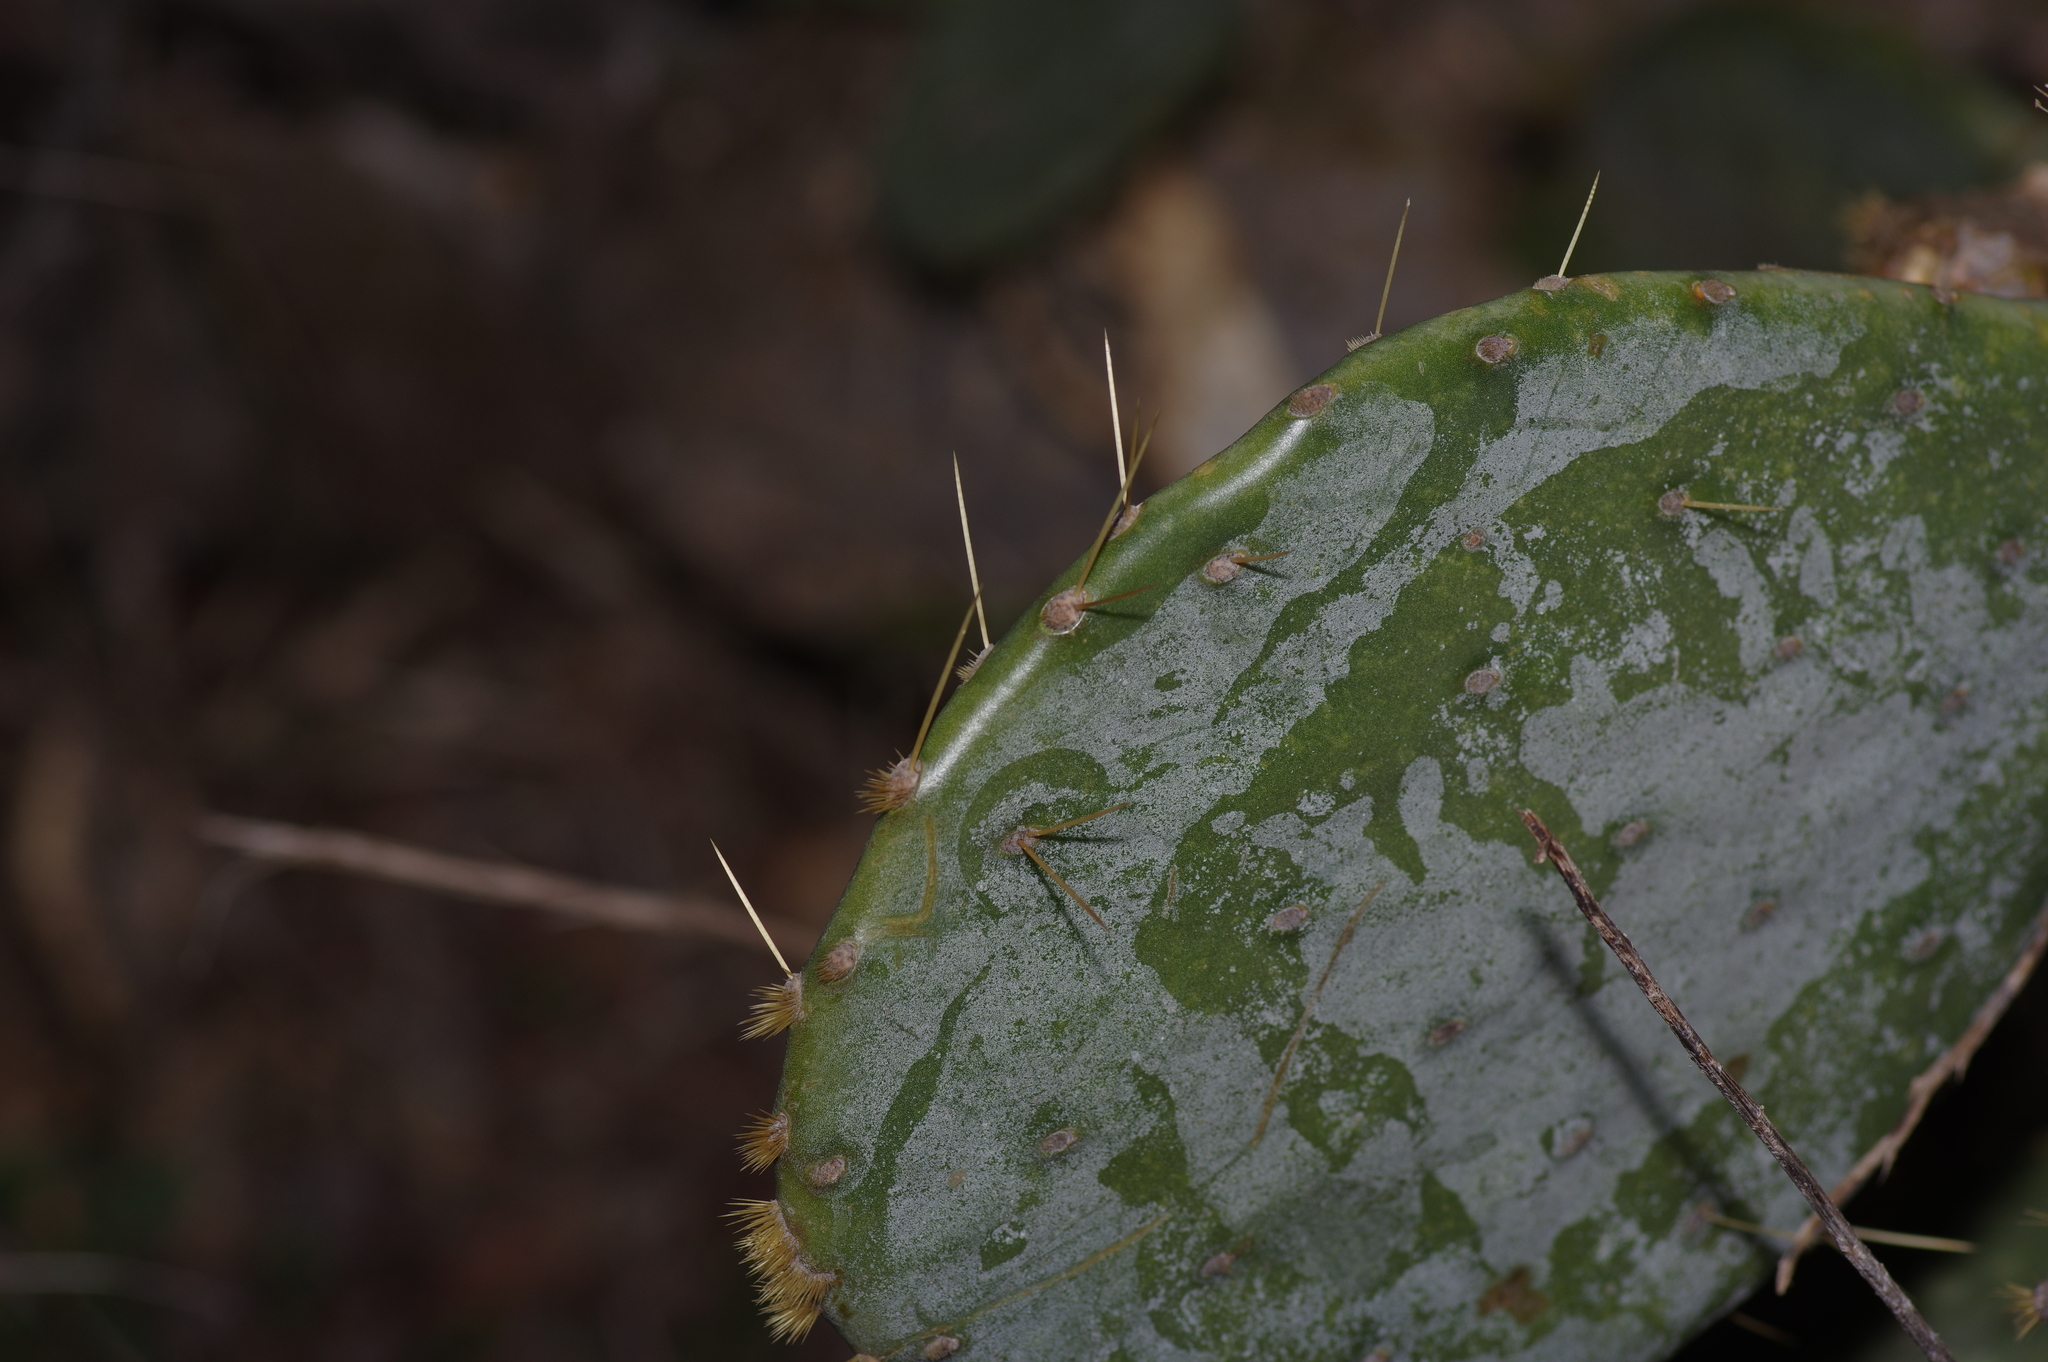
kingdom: Plantae
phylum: Tracheophyta
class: Magnoliopsida
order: Caryophyllales
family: Cactaceae
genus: Opuntia
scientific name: Opuntia orbiculata
